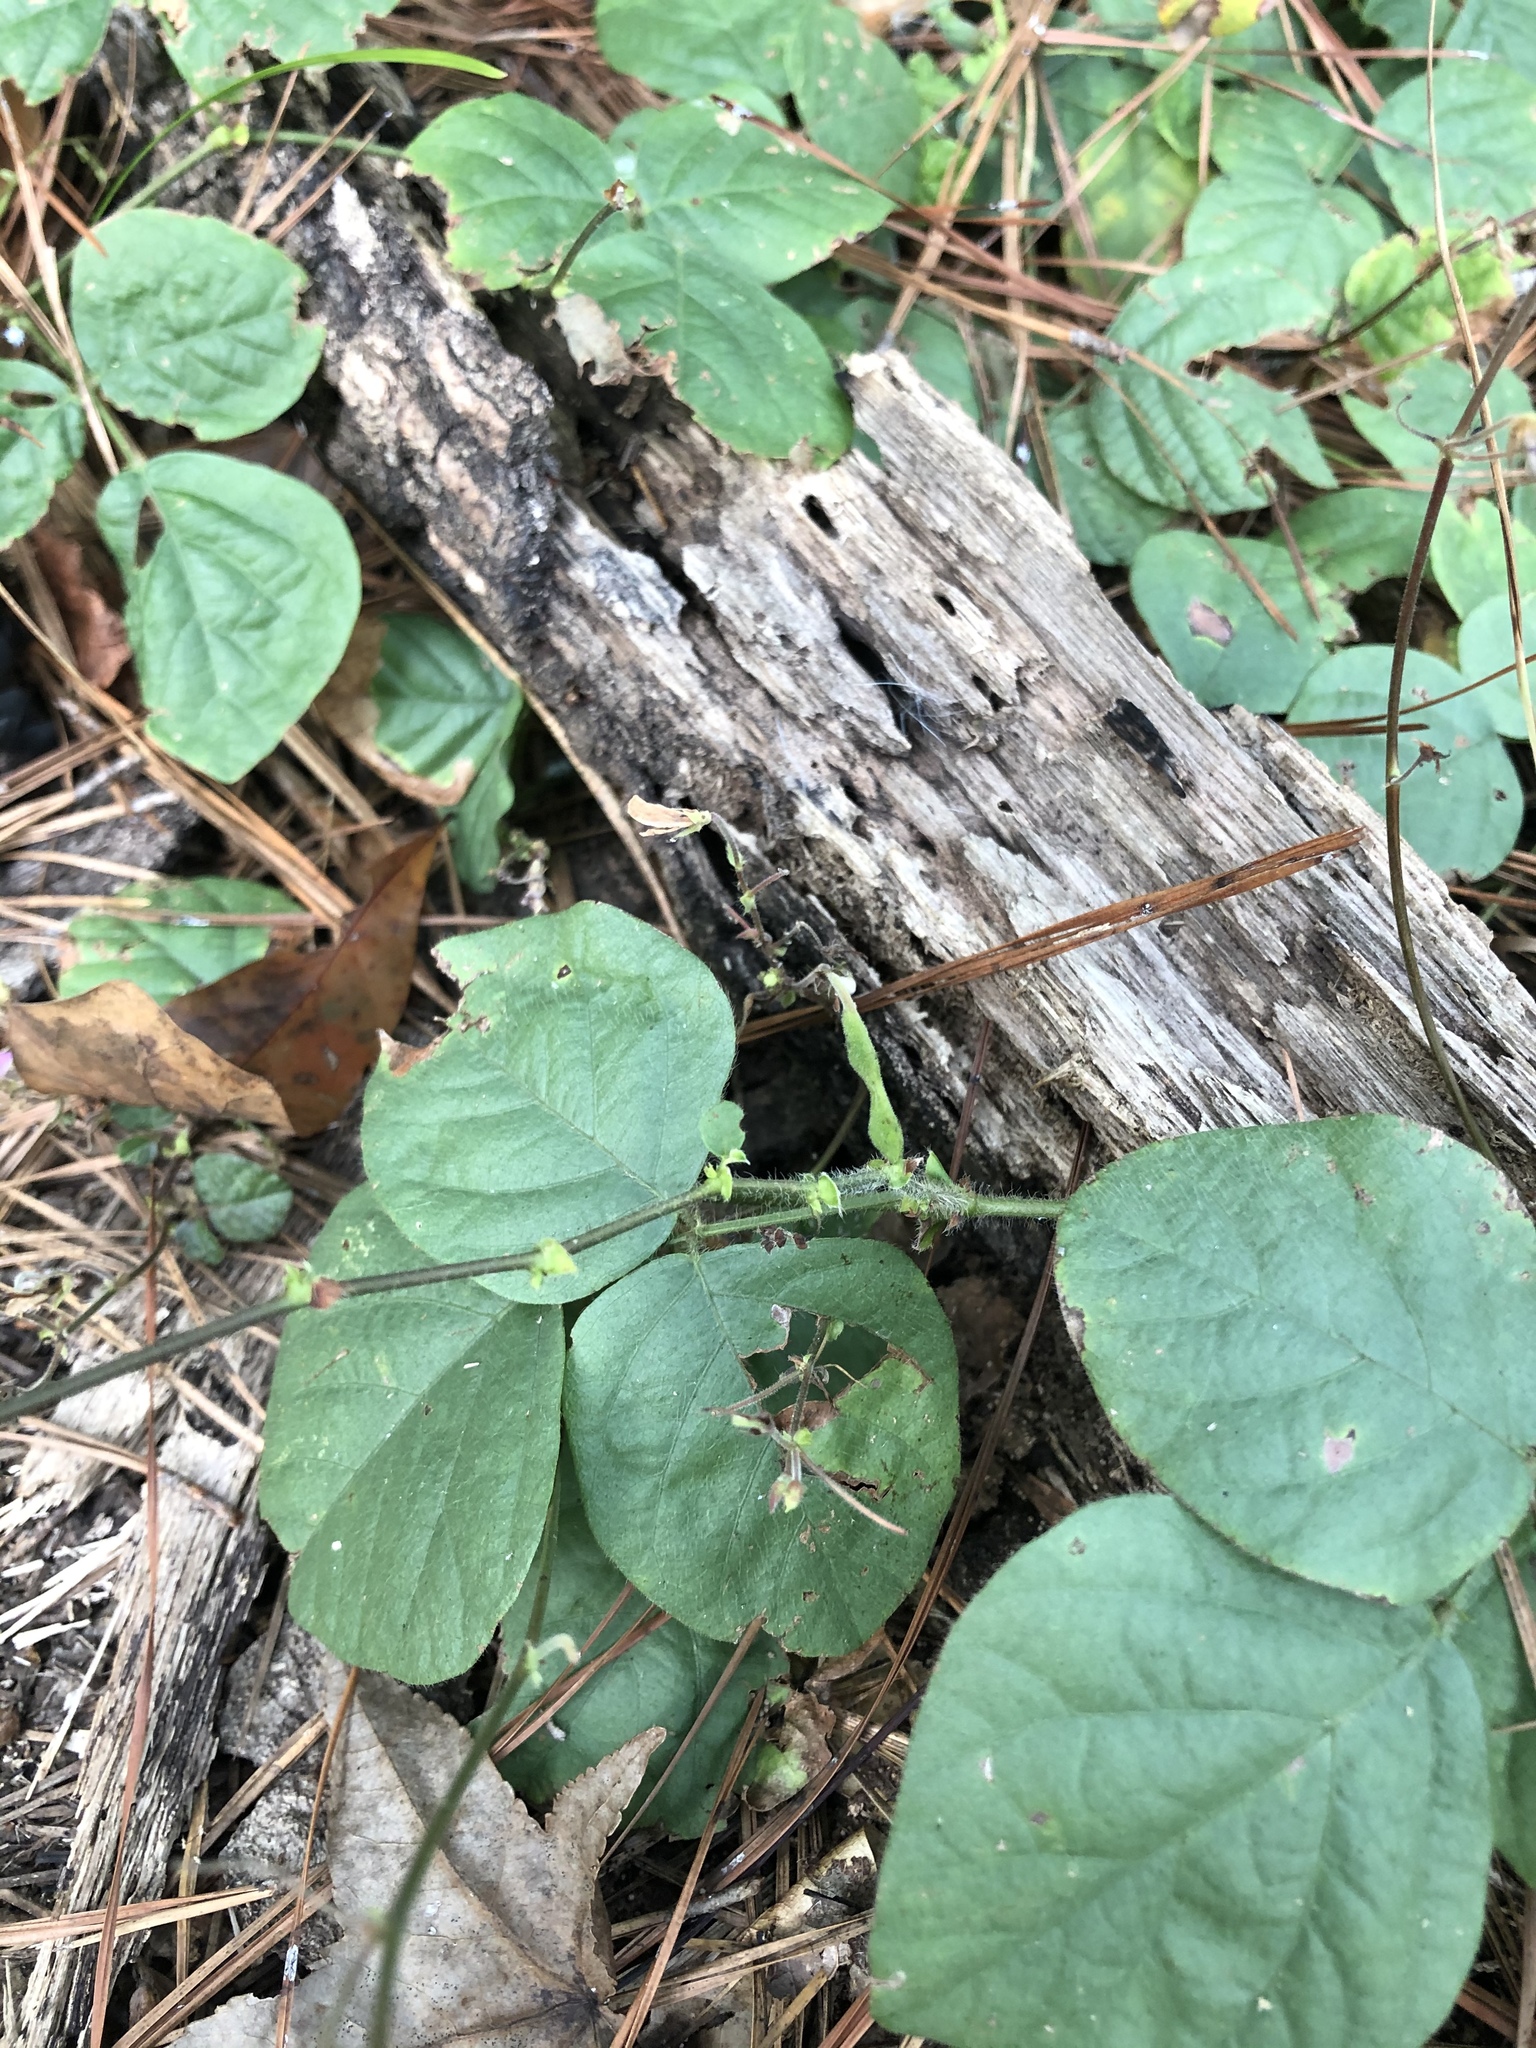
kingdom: Plantae
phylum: Tracheophyta
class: Magnoliopsida
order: Fabales
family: Fabaceae
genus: Desmodium
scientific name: Desmodium rotundifolium
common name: Dollarleaf
